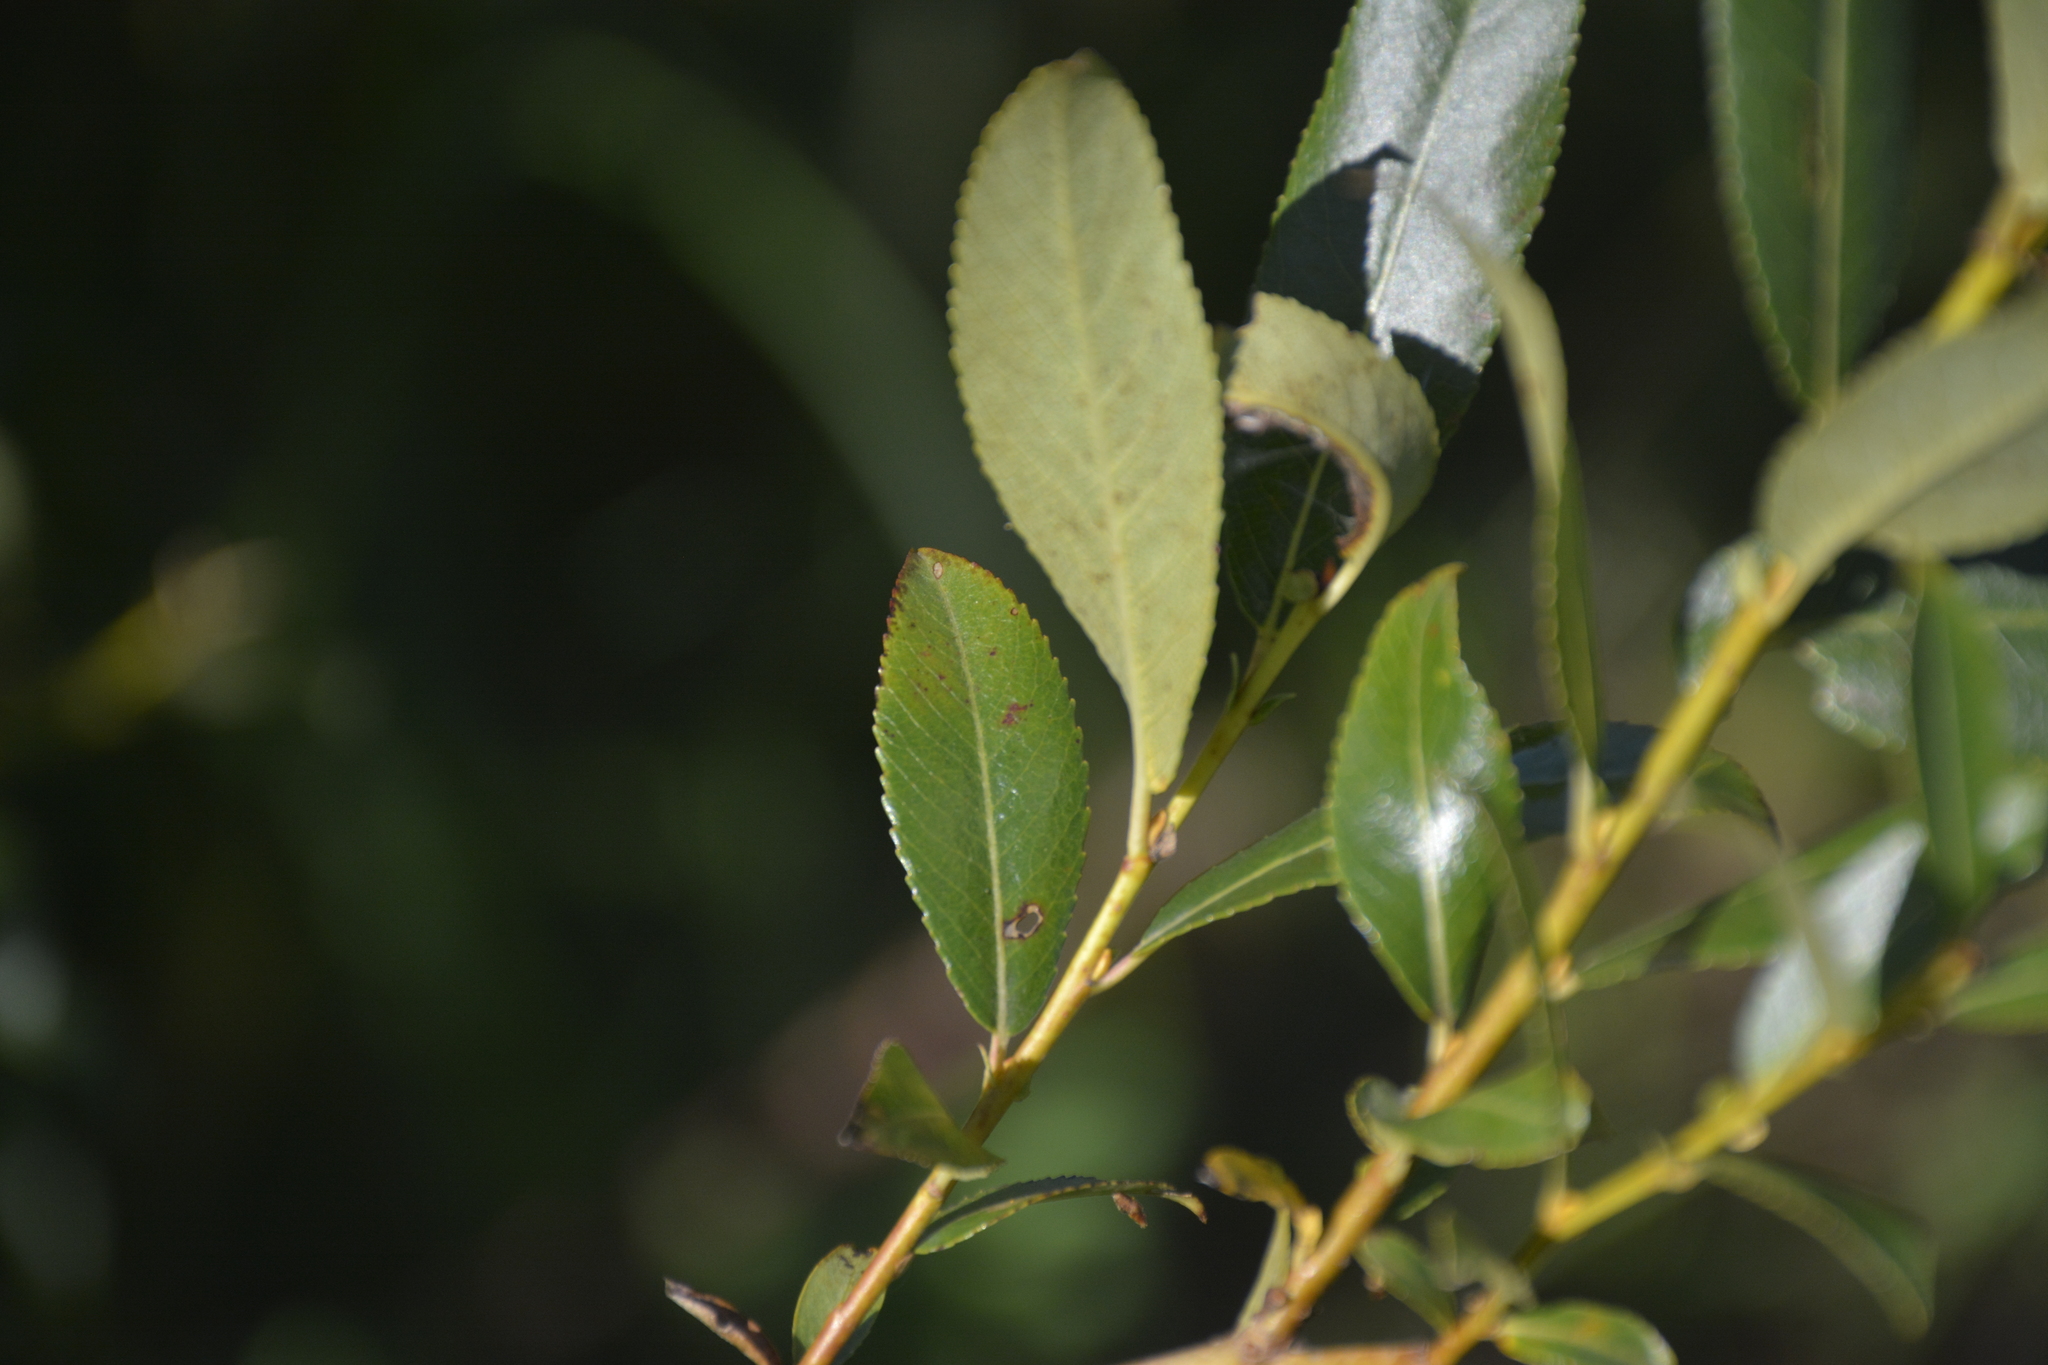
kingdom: Plantae
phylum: Tracheophyta
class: Magnoliopsida
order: Malpighiales
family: Salicaceae
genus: Salix
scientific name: Salix triandra
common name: Almond willow
